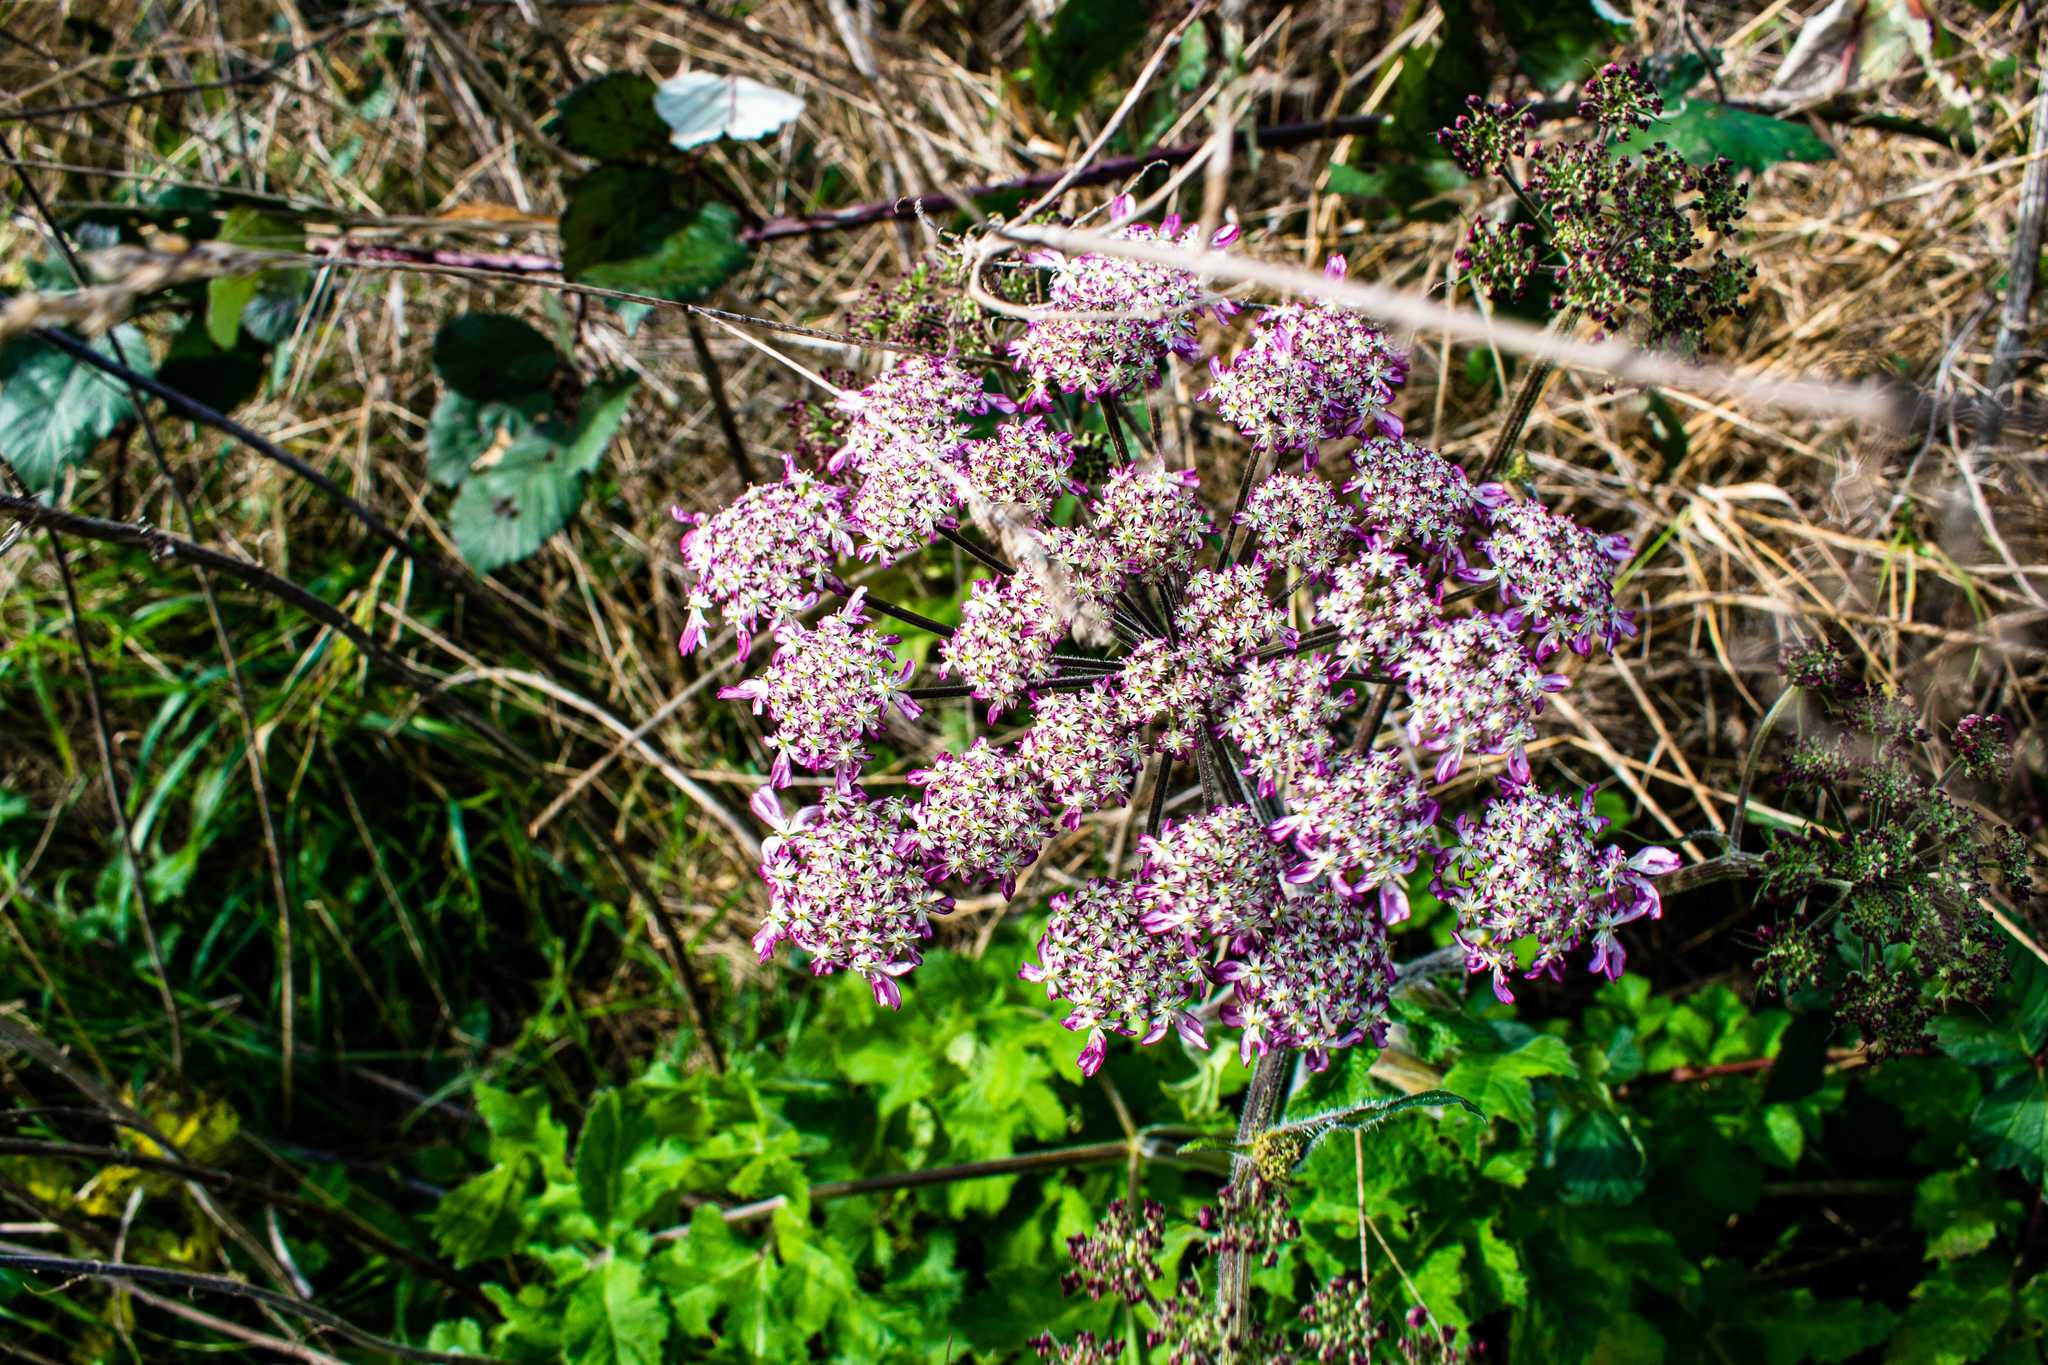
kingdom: Plantae
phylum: Tracheophyta
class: Magnoliopsida
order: Apiales
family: Apiaceae
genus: Heracleum
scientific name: Heracleum sphondylium
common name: Hogweed
